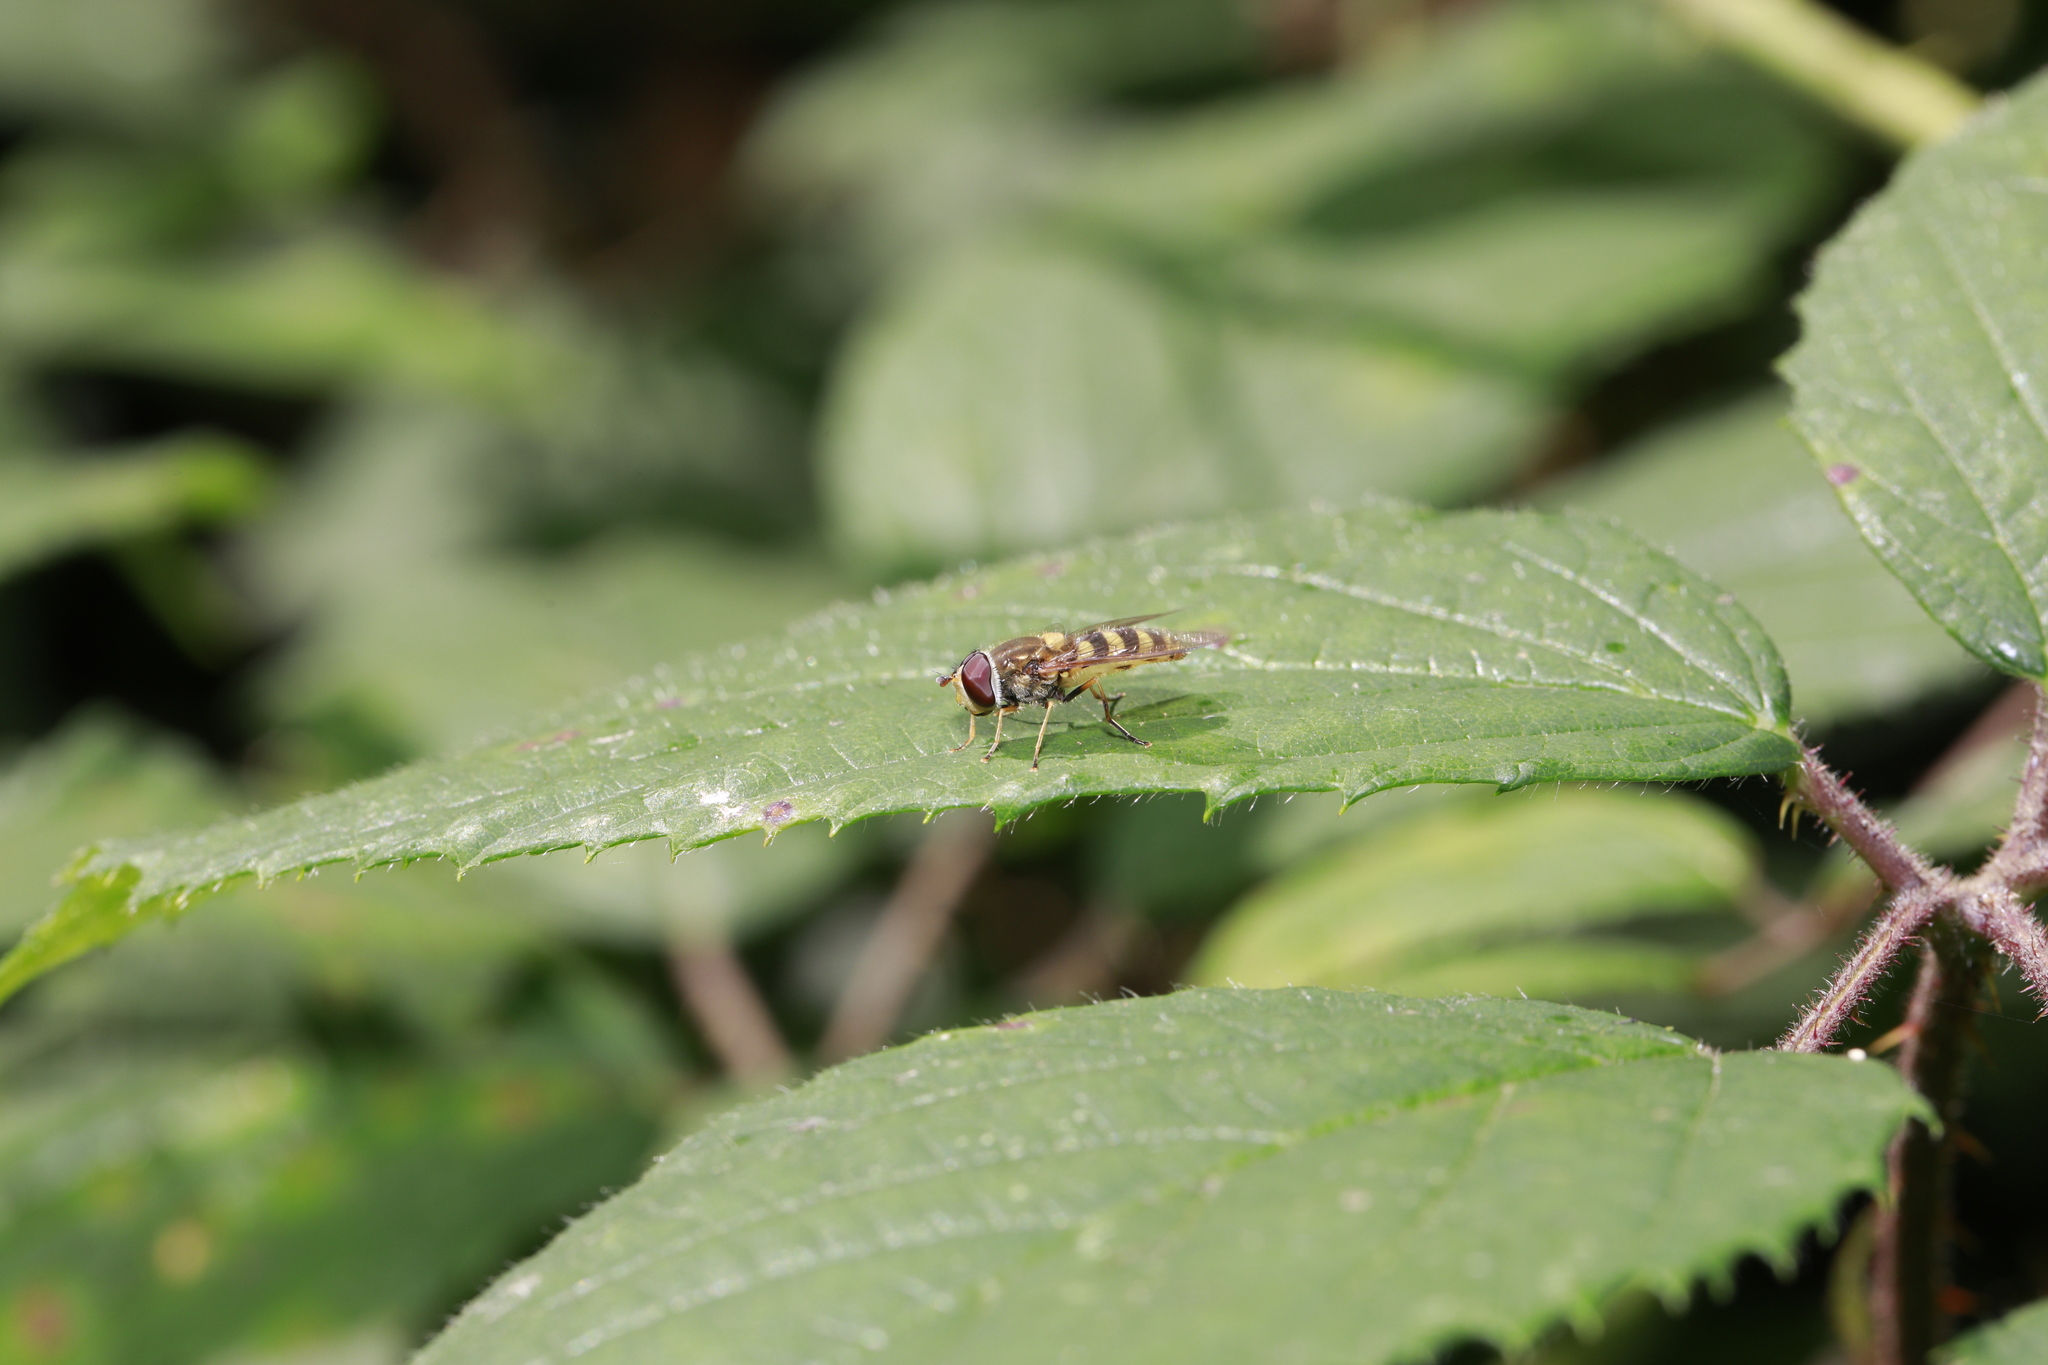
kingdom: Animalia
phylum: Arthropoda
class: Insecta
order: Diptera
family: Syrphidae
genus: Syrphus
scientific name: Syrphus
